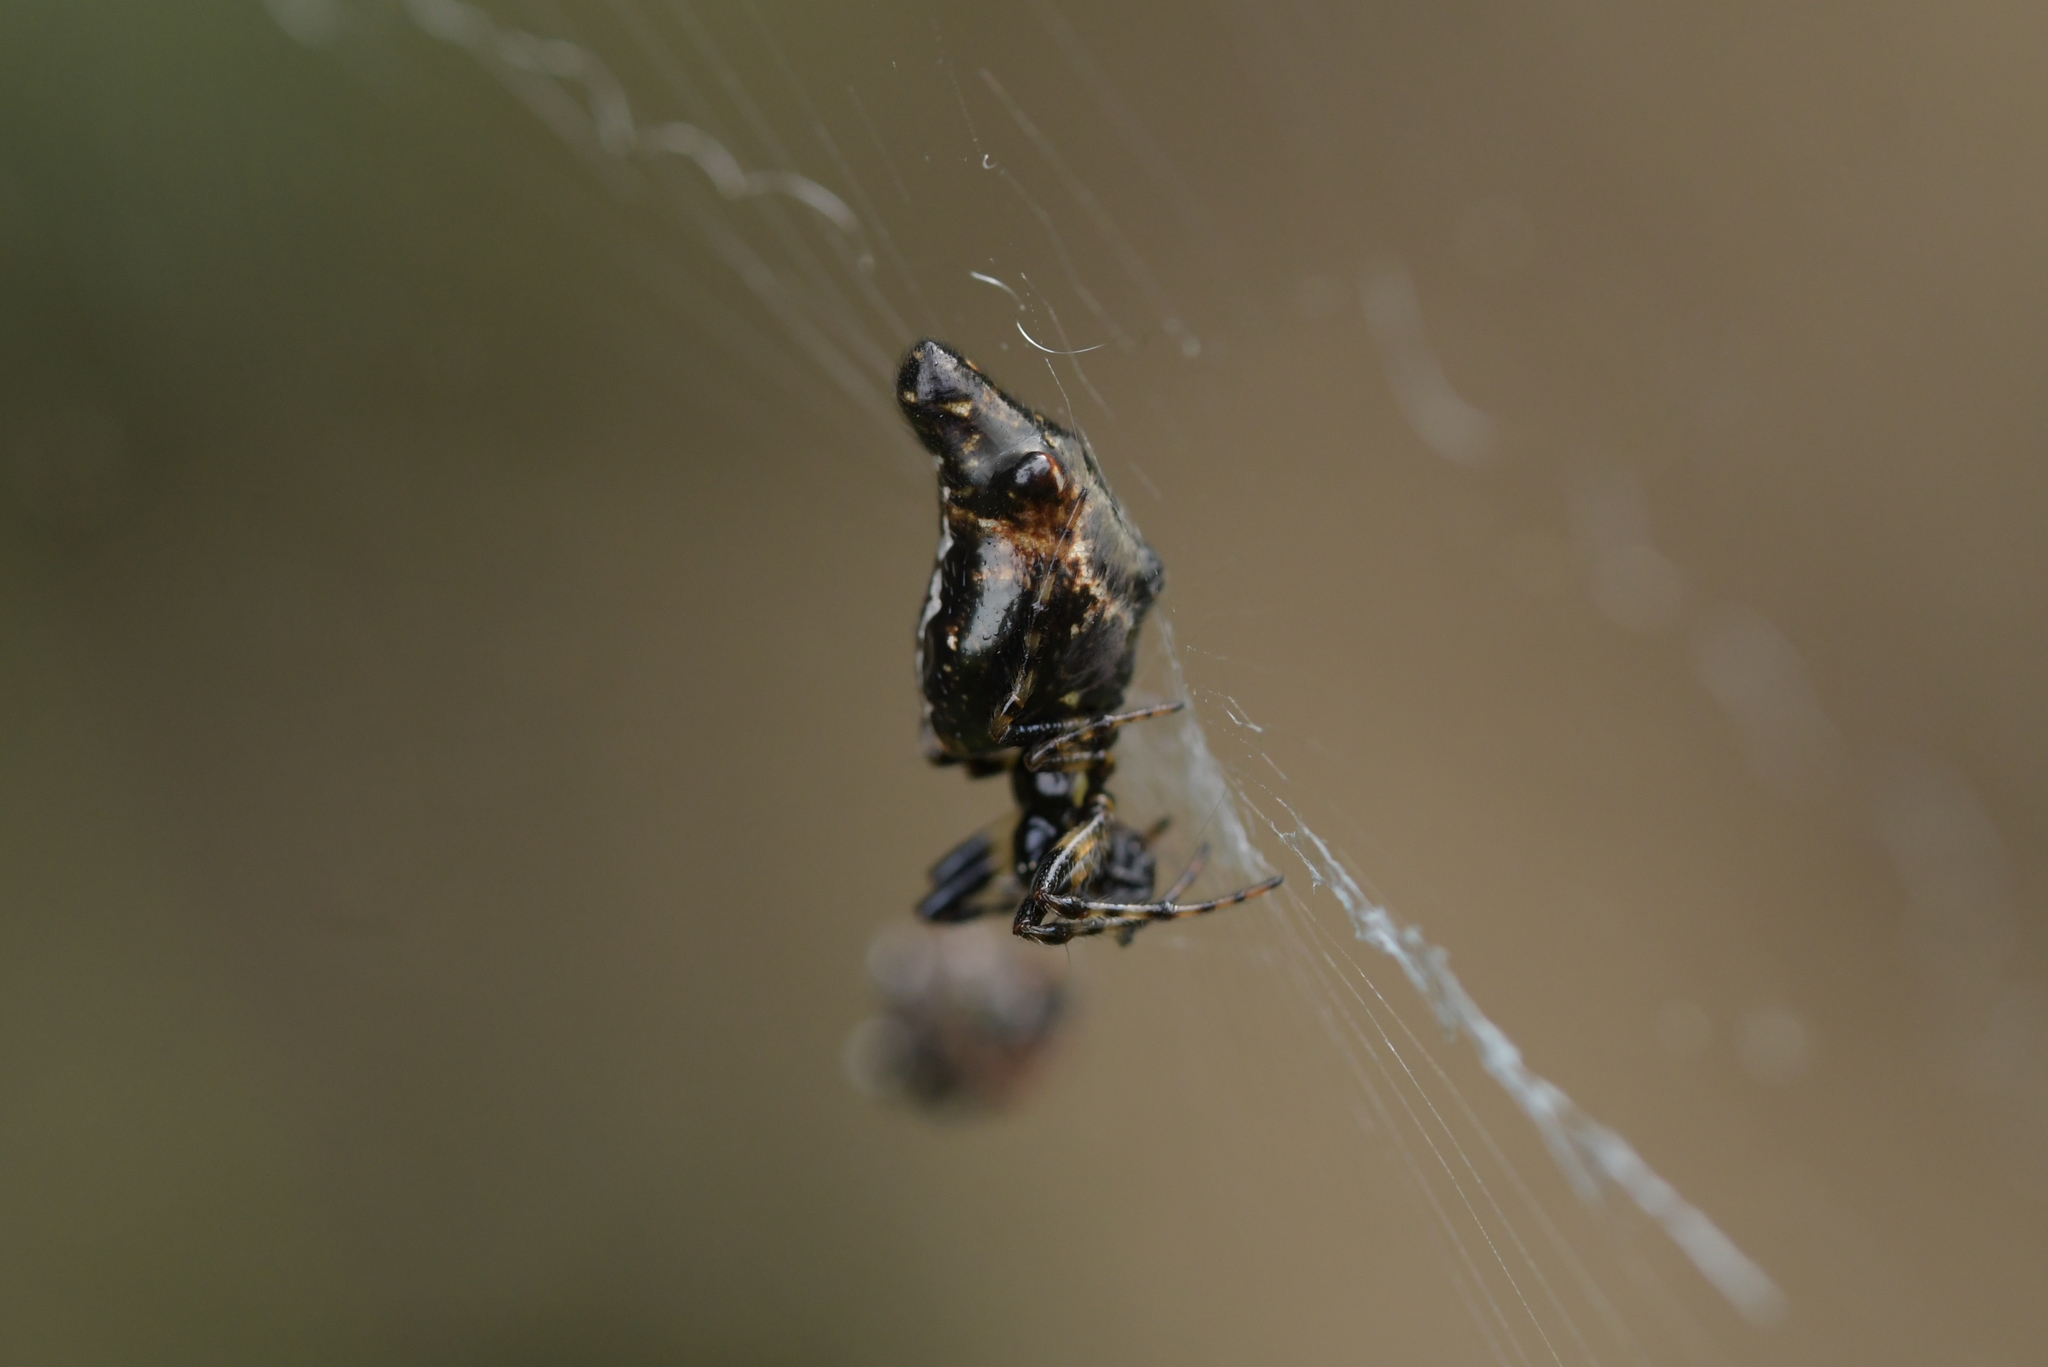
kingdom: Animalia
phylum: Arthropoda
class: Arachnida
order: Araneae
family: Araneidae
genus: Cyclosa
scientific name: Cyclosa trilobata
